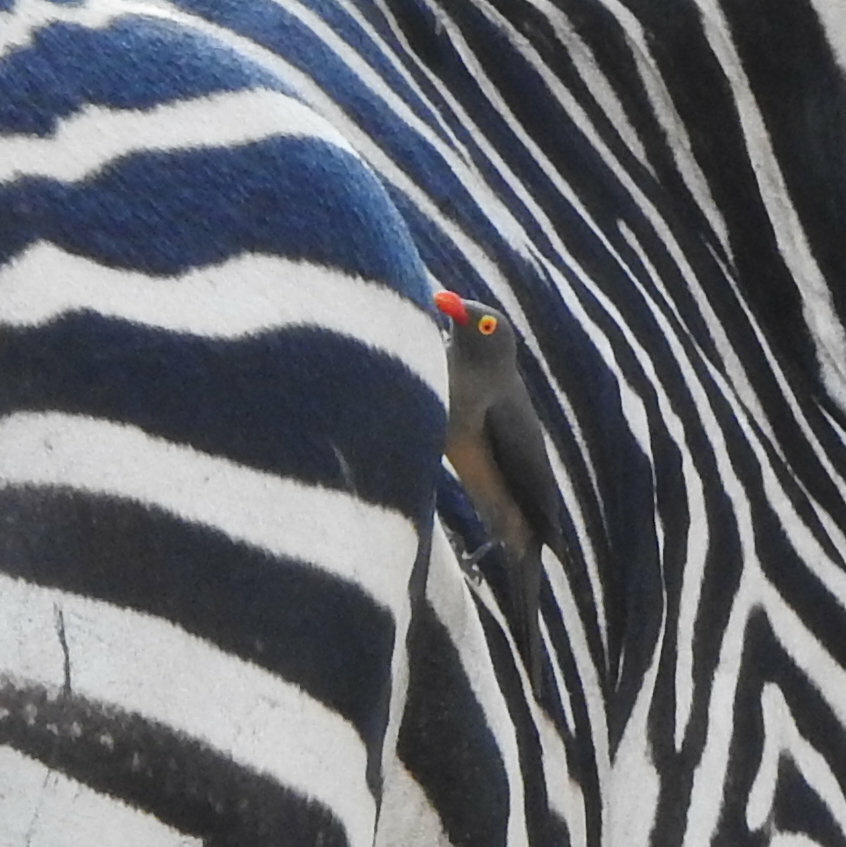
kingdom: Animalia
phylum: Chordata
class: Aves
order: Passeriformes
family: Buphagidae
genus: Buphagus
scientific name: Buphagus erythrorhynchus
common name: Red-billed oxpecker
